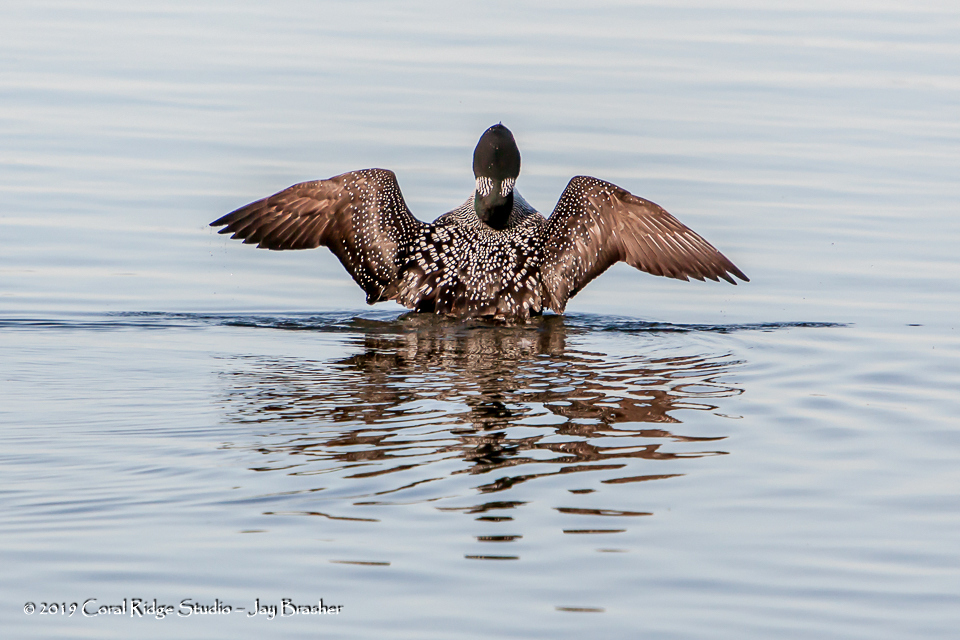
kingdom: Animalia
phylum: Chordata
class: Aves
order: Gaviiformes
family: Gaviidae
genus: Gavia
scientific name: Gavia immer
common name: Common loon
